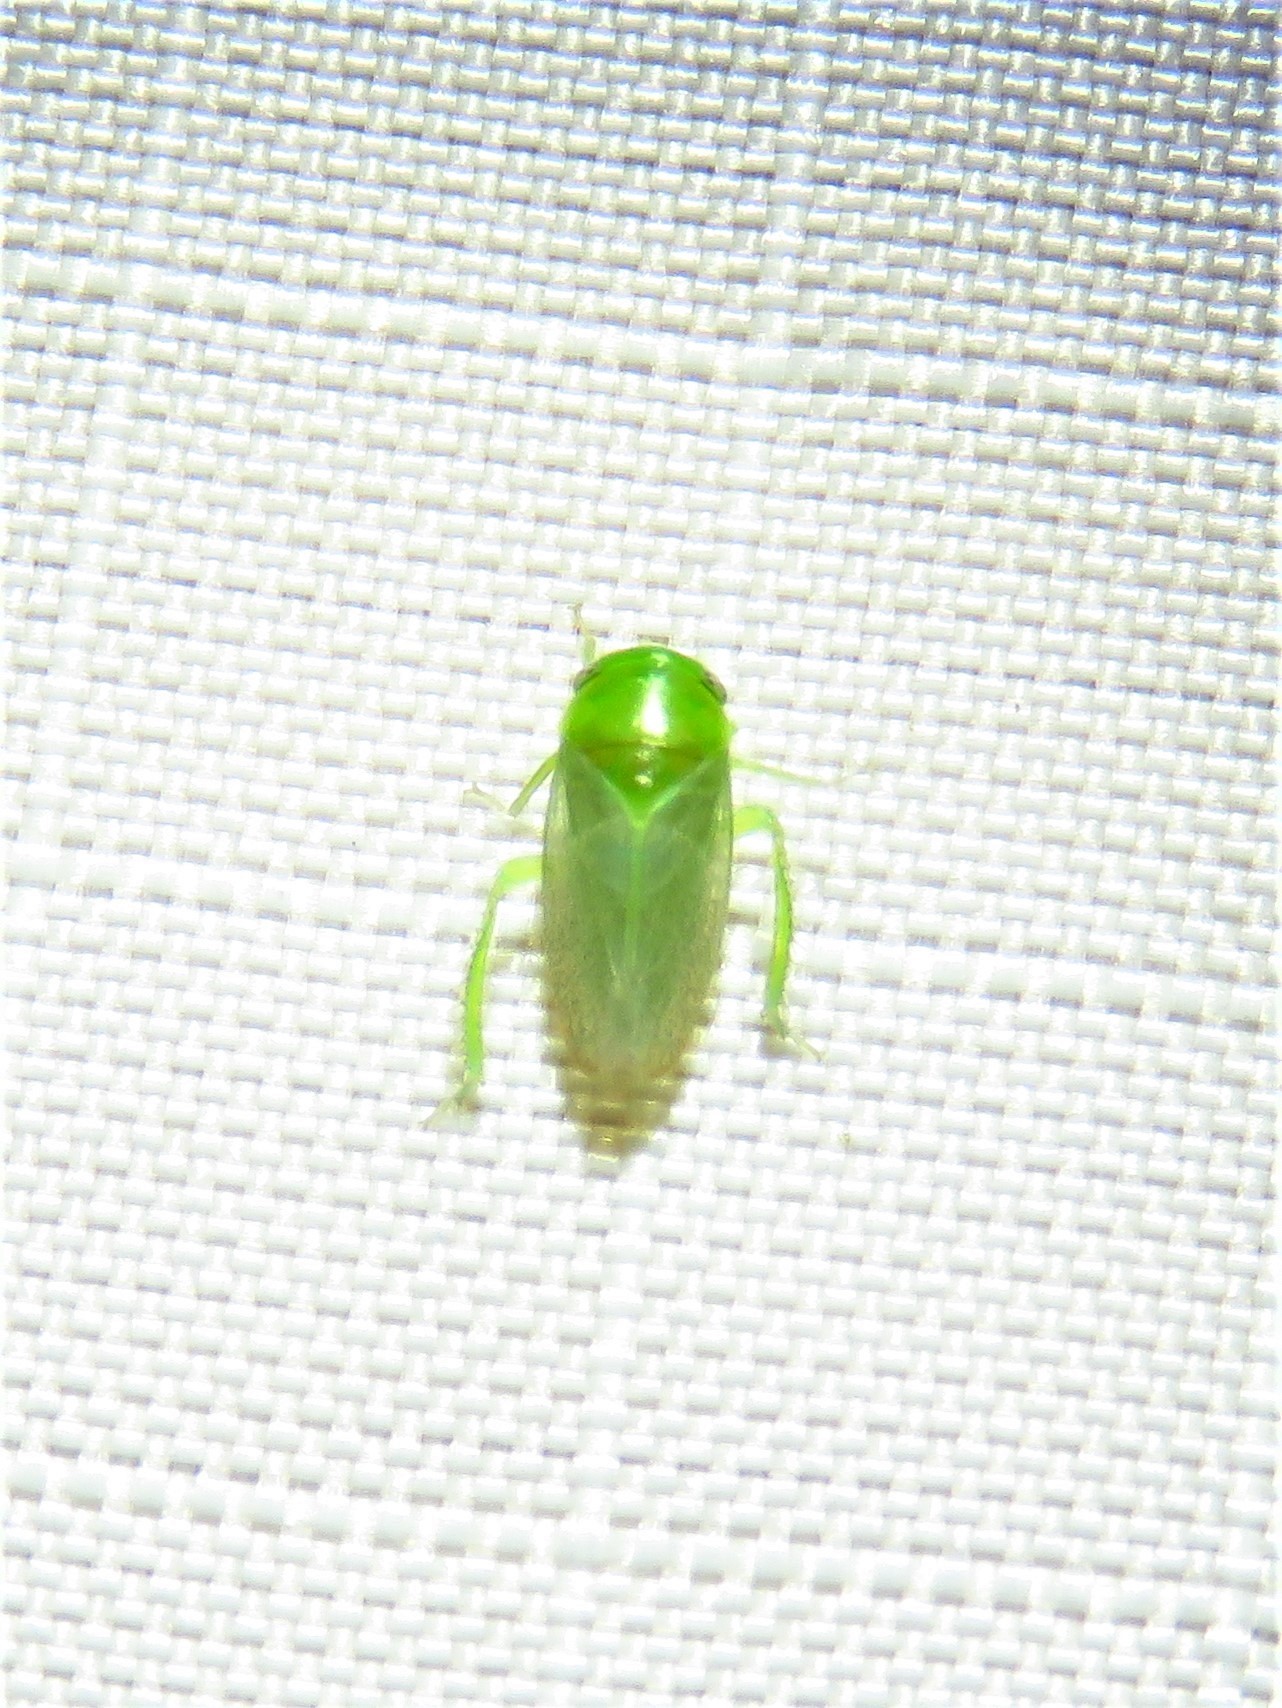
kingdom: Animalia
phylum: Arthropoda
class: Insecta
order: Hemiptera
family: Cicadellidae
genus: Penestragania
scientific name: Penestragania robusta
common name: Robust leafhopper
